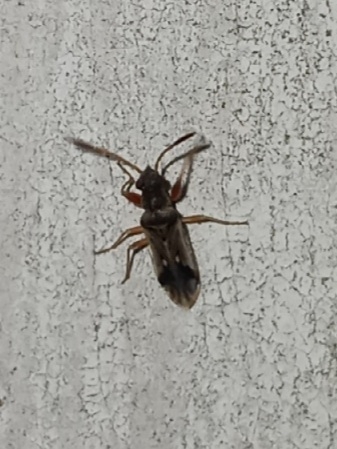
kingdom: Animalia
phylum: Arthropoda
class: Insecta
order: Hemiptera
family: Rhyparochromidae
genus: Pseudopachybrachius
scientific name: Pseudopachybrachius vinctus
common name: Dirt-colored seed bug
